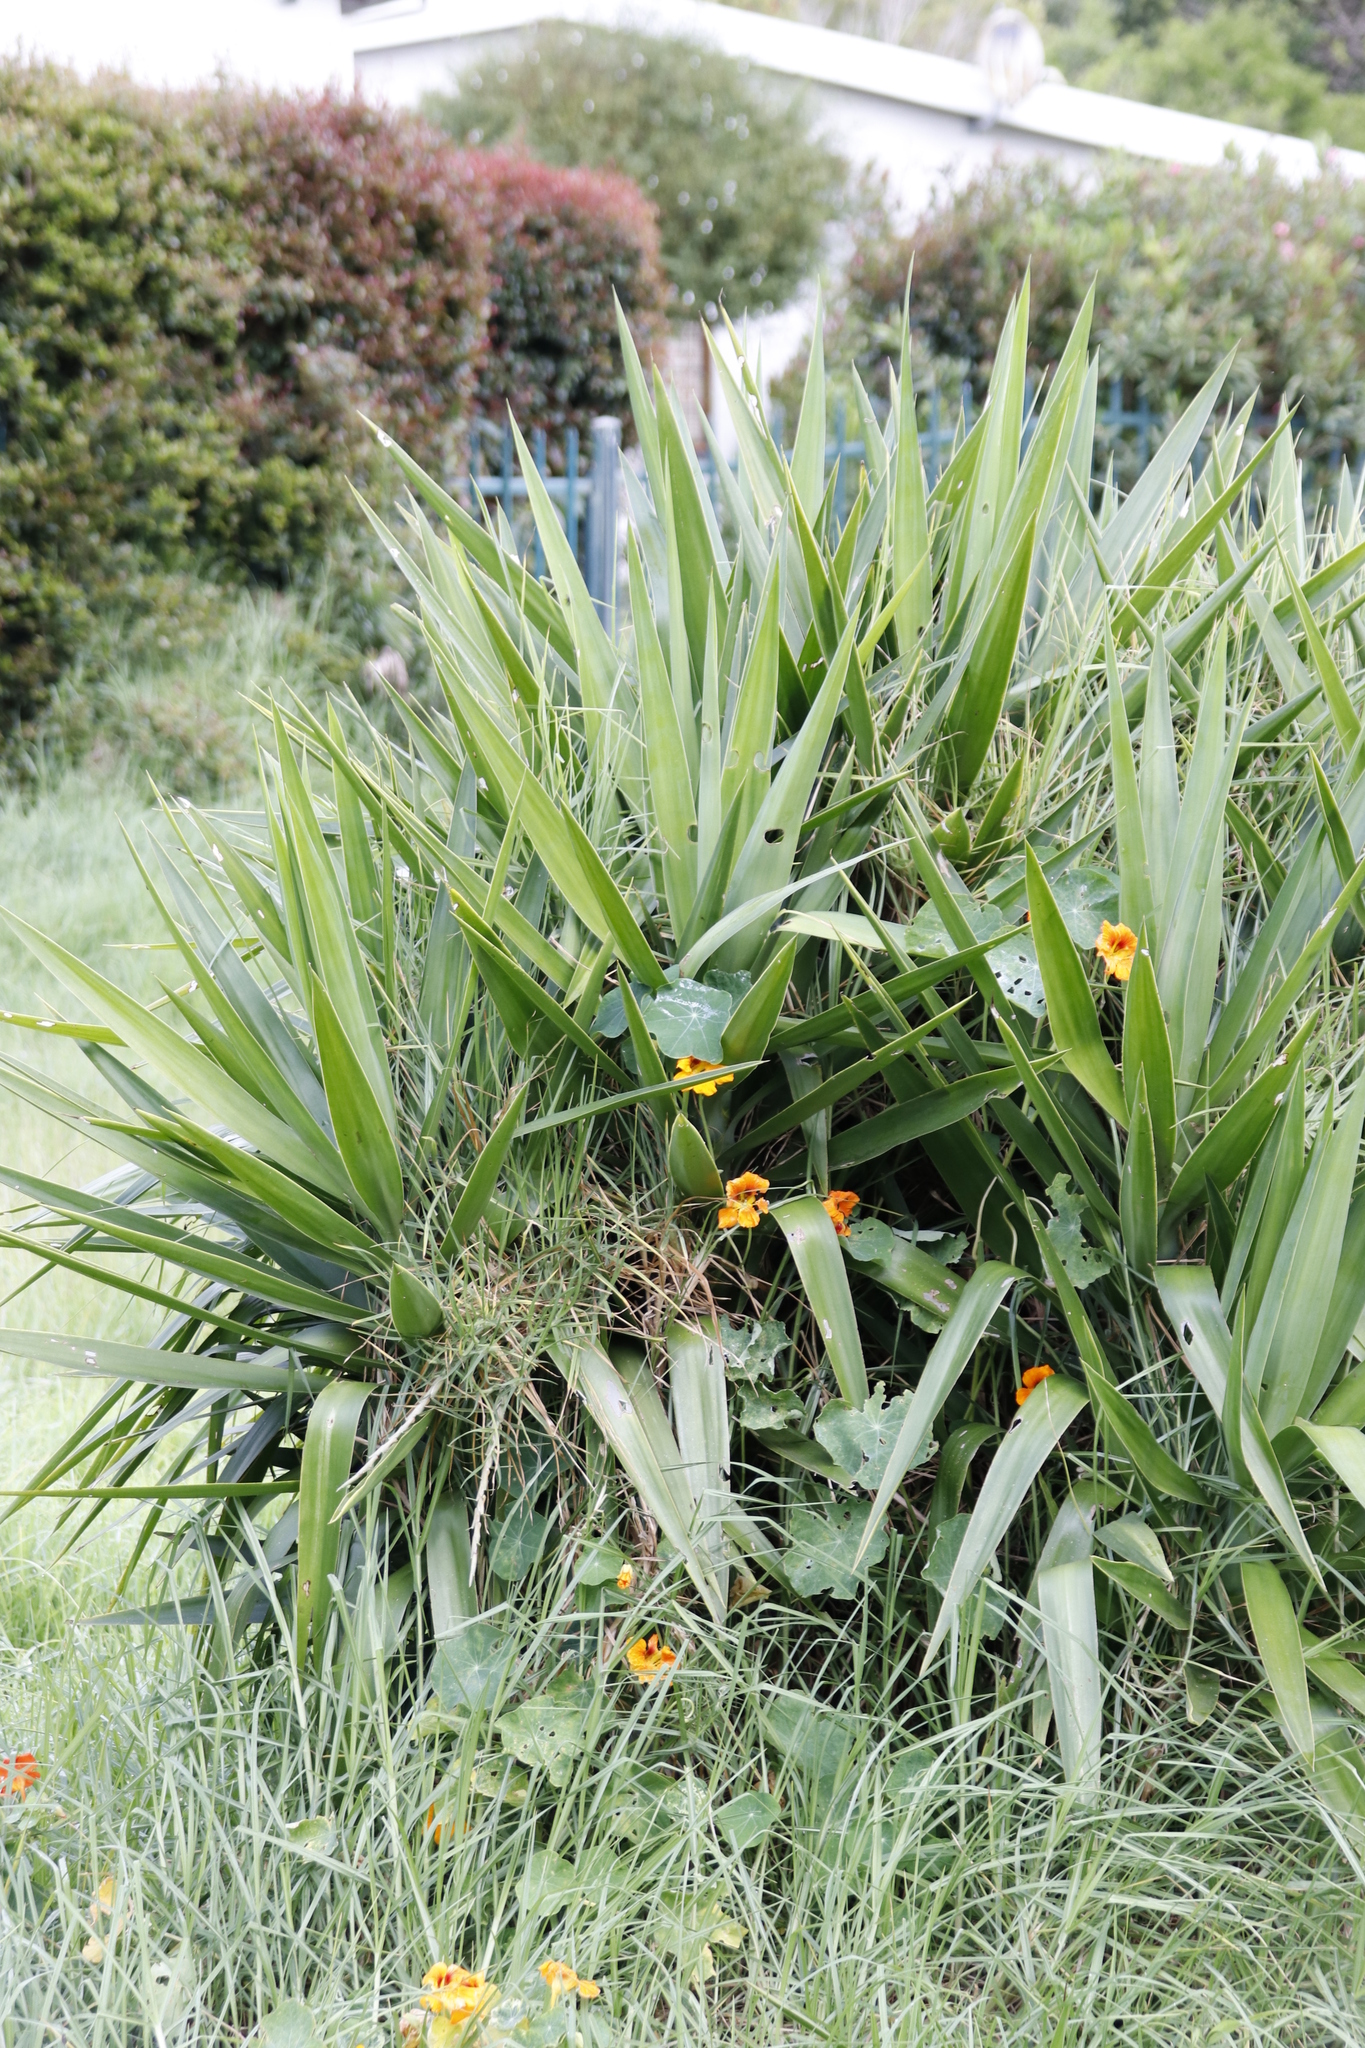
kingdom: Plantae
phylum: Tracheophyta
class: Liliopsida
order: Asparagales
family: Asparagaceae
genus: Yucca
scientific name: Yucca gigantea
